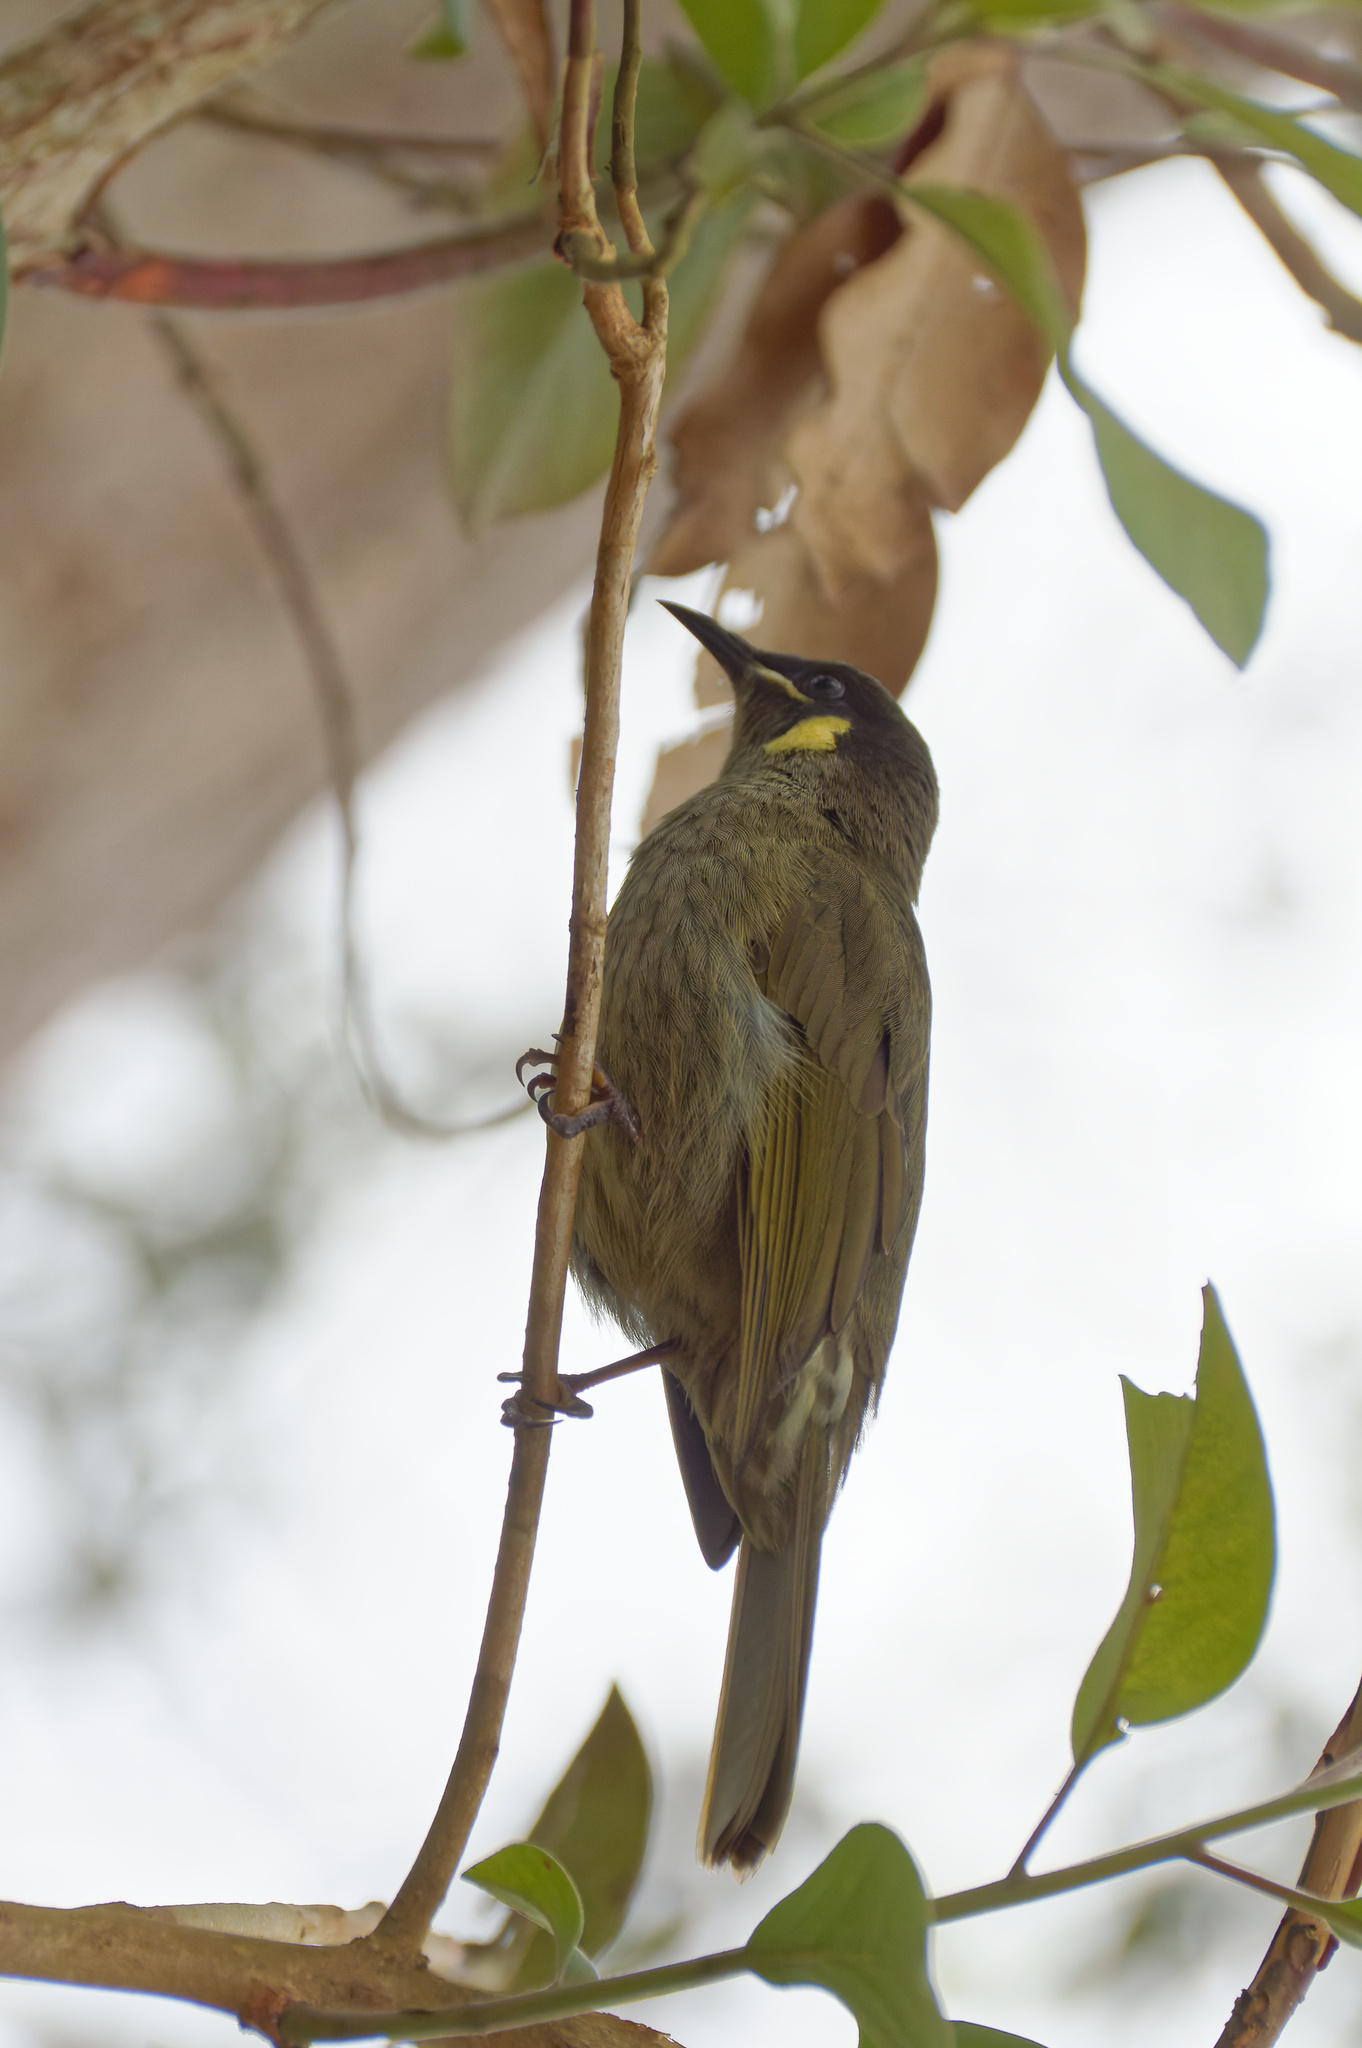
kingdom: Animalia
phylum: Chordata
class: Aves
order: Passeriformes
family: Meliphagidae
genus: Meliphaga
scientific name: Meliphaga lewinii
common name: Lewin's honeyeater
